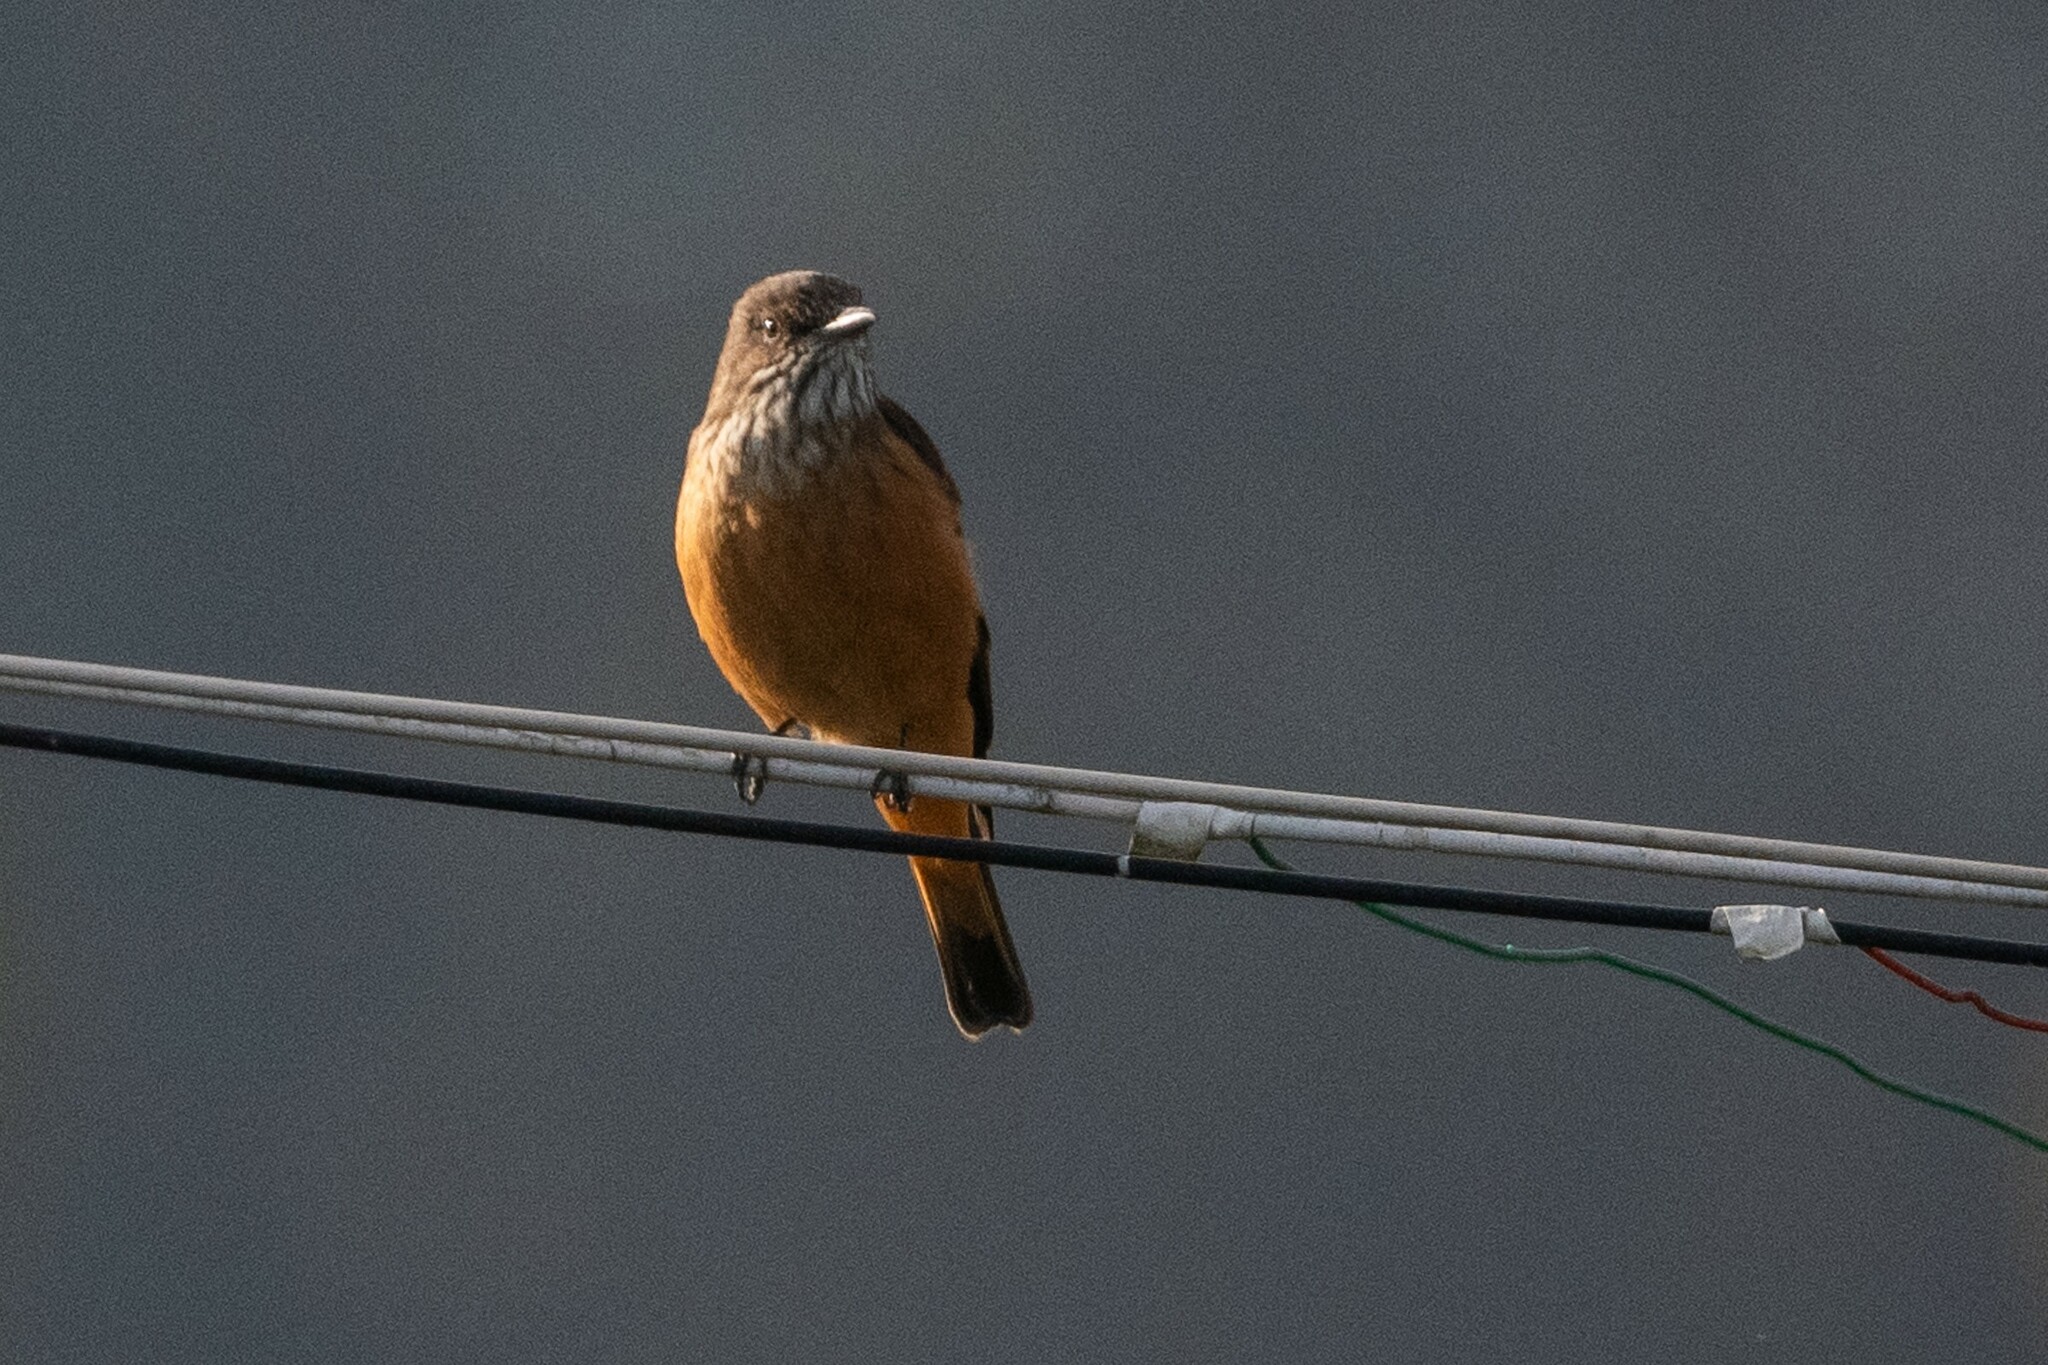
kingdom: Animalia
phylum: Chordata
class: Aves
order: Passeriformes
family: Tyrannidae
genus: Myiotheretes
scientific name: Myiotheretes striaticollis
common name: Streak-throated bush tyrant
